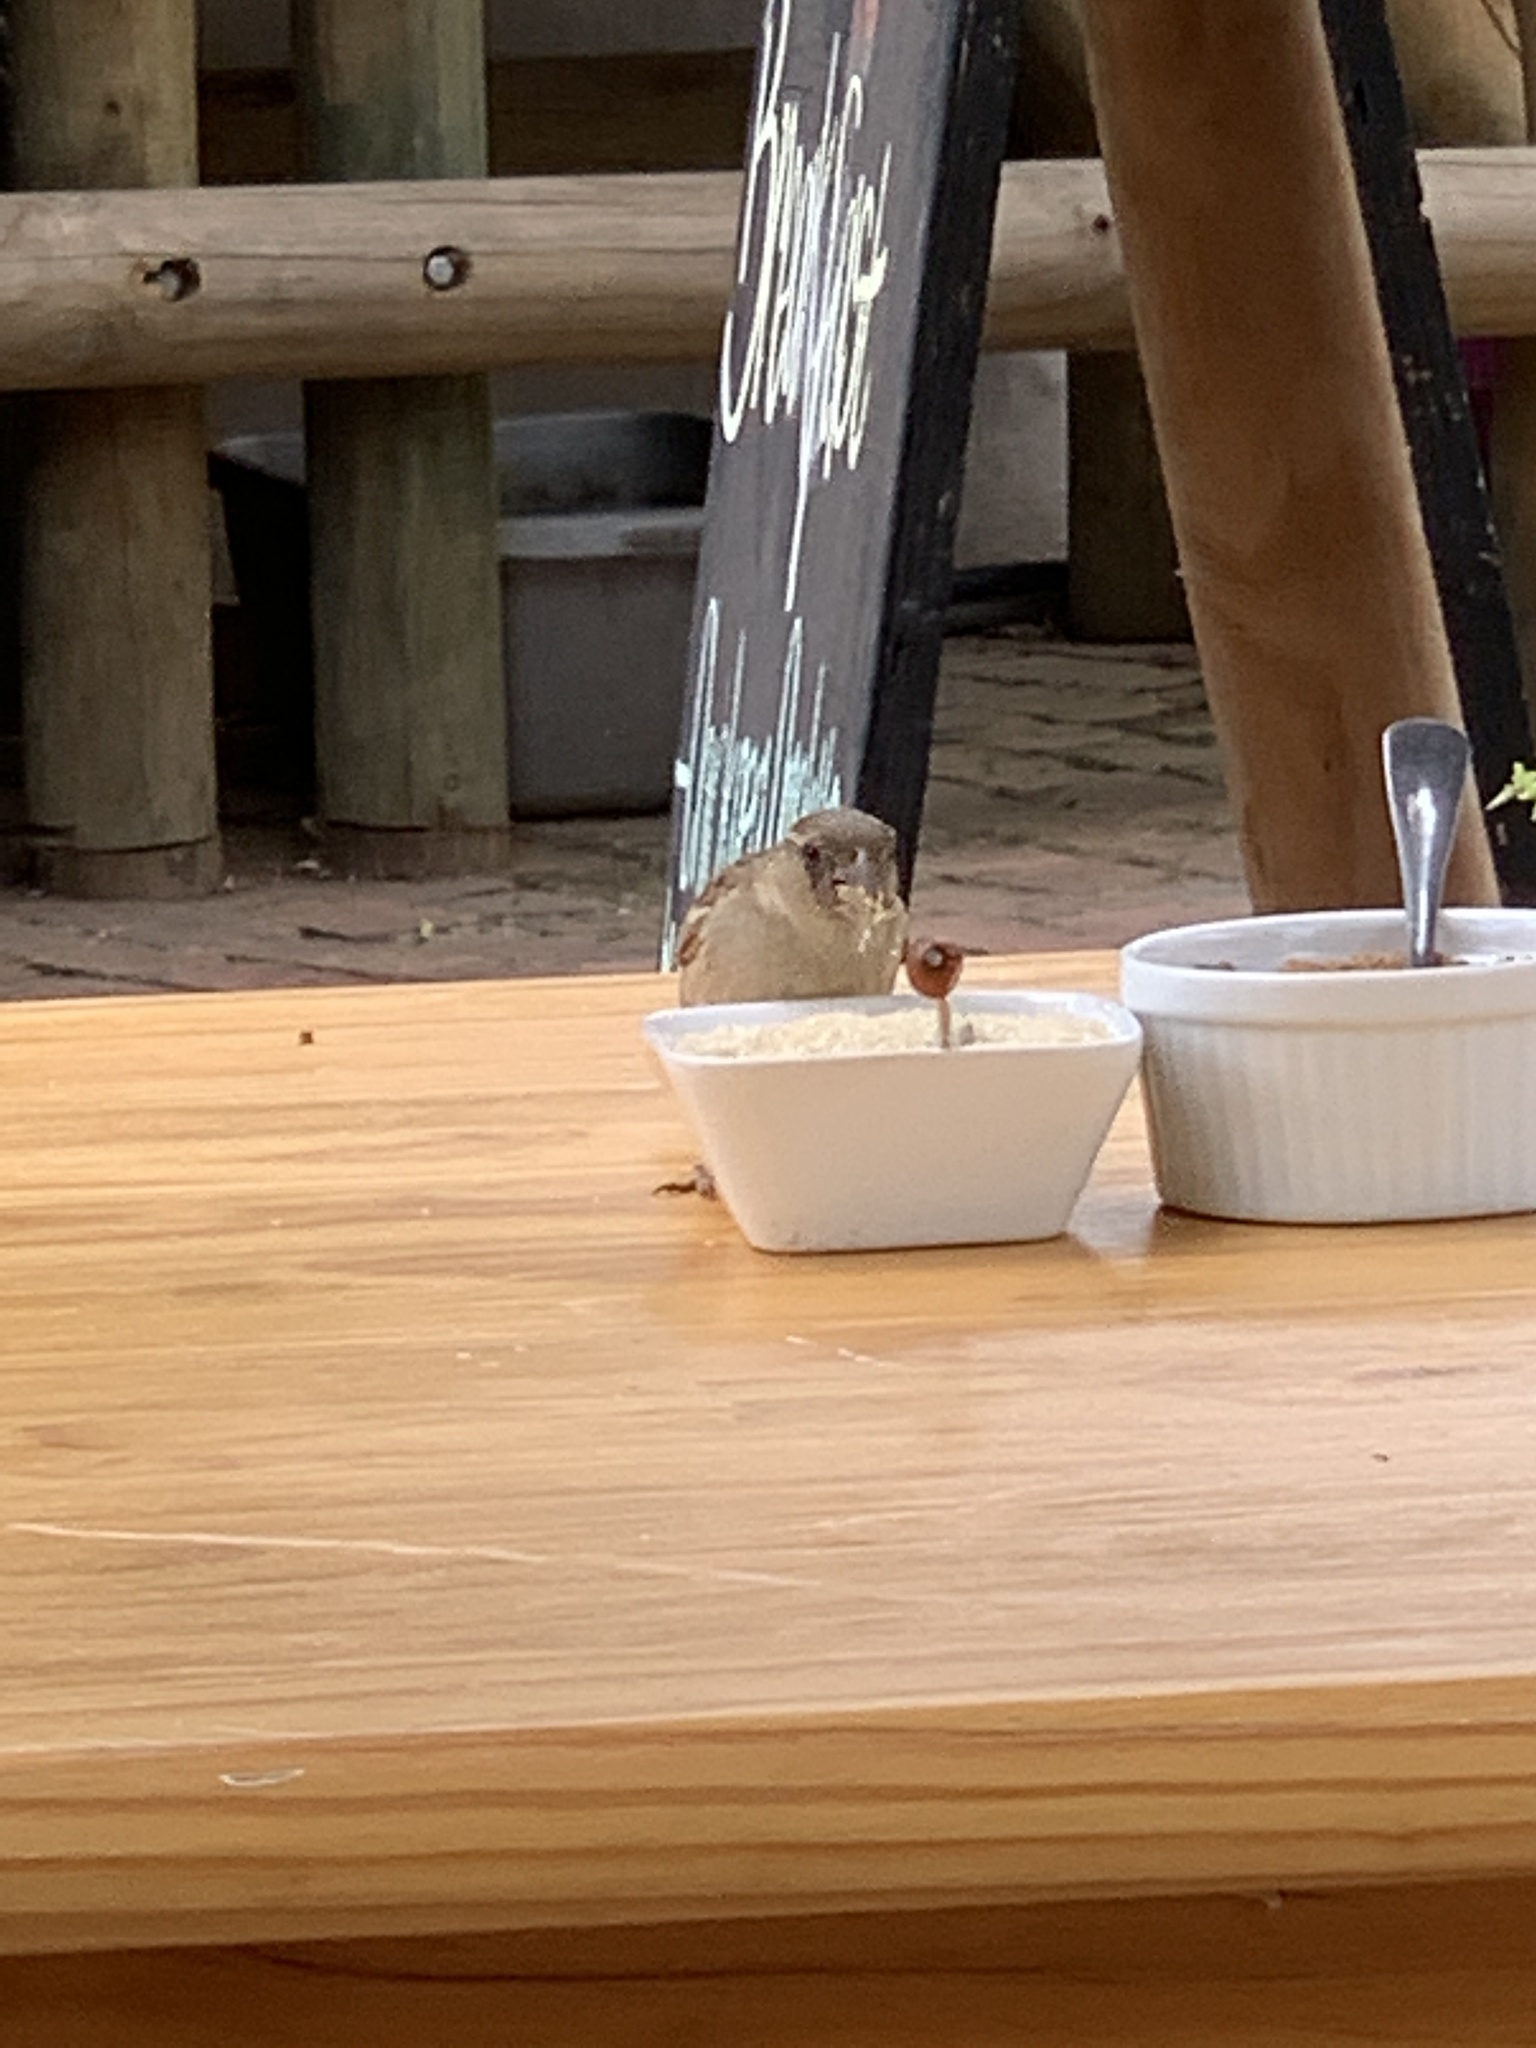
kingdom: Animalia
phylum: Chordata
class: Aves
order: Passeriformes
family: Passeridae
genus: Passer
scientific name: Passer domesticus
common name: House sparrow
